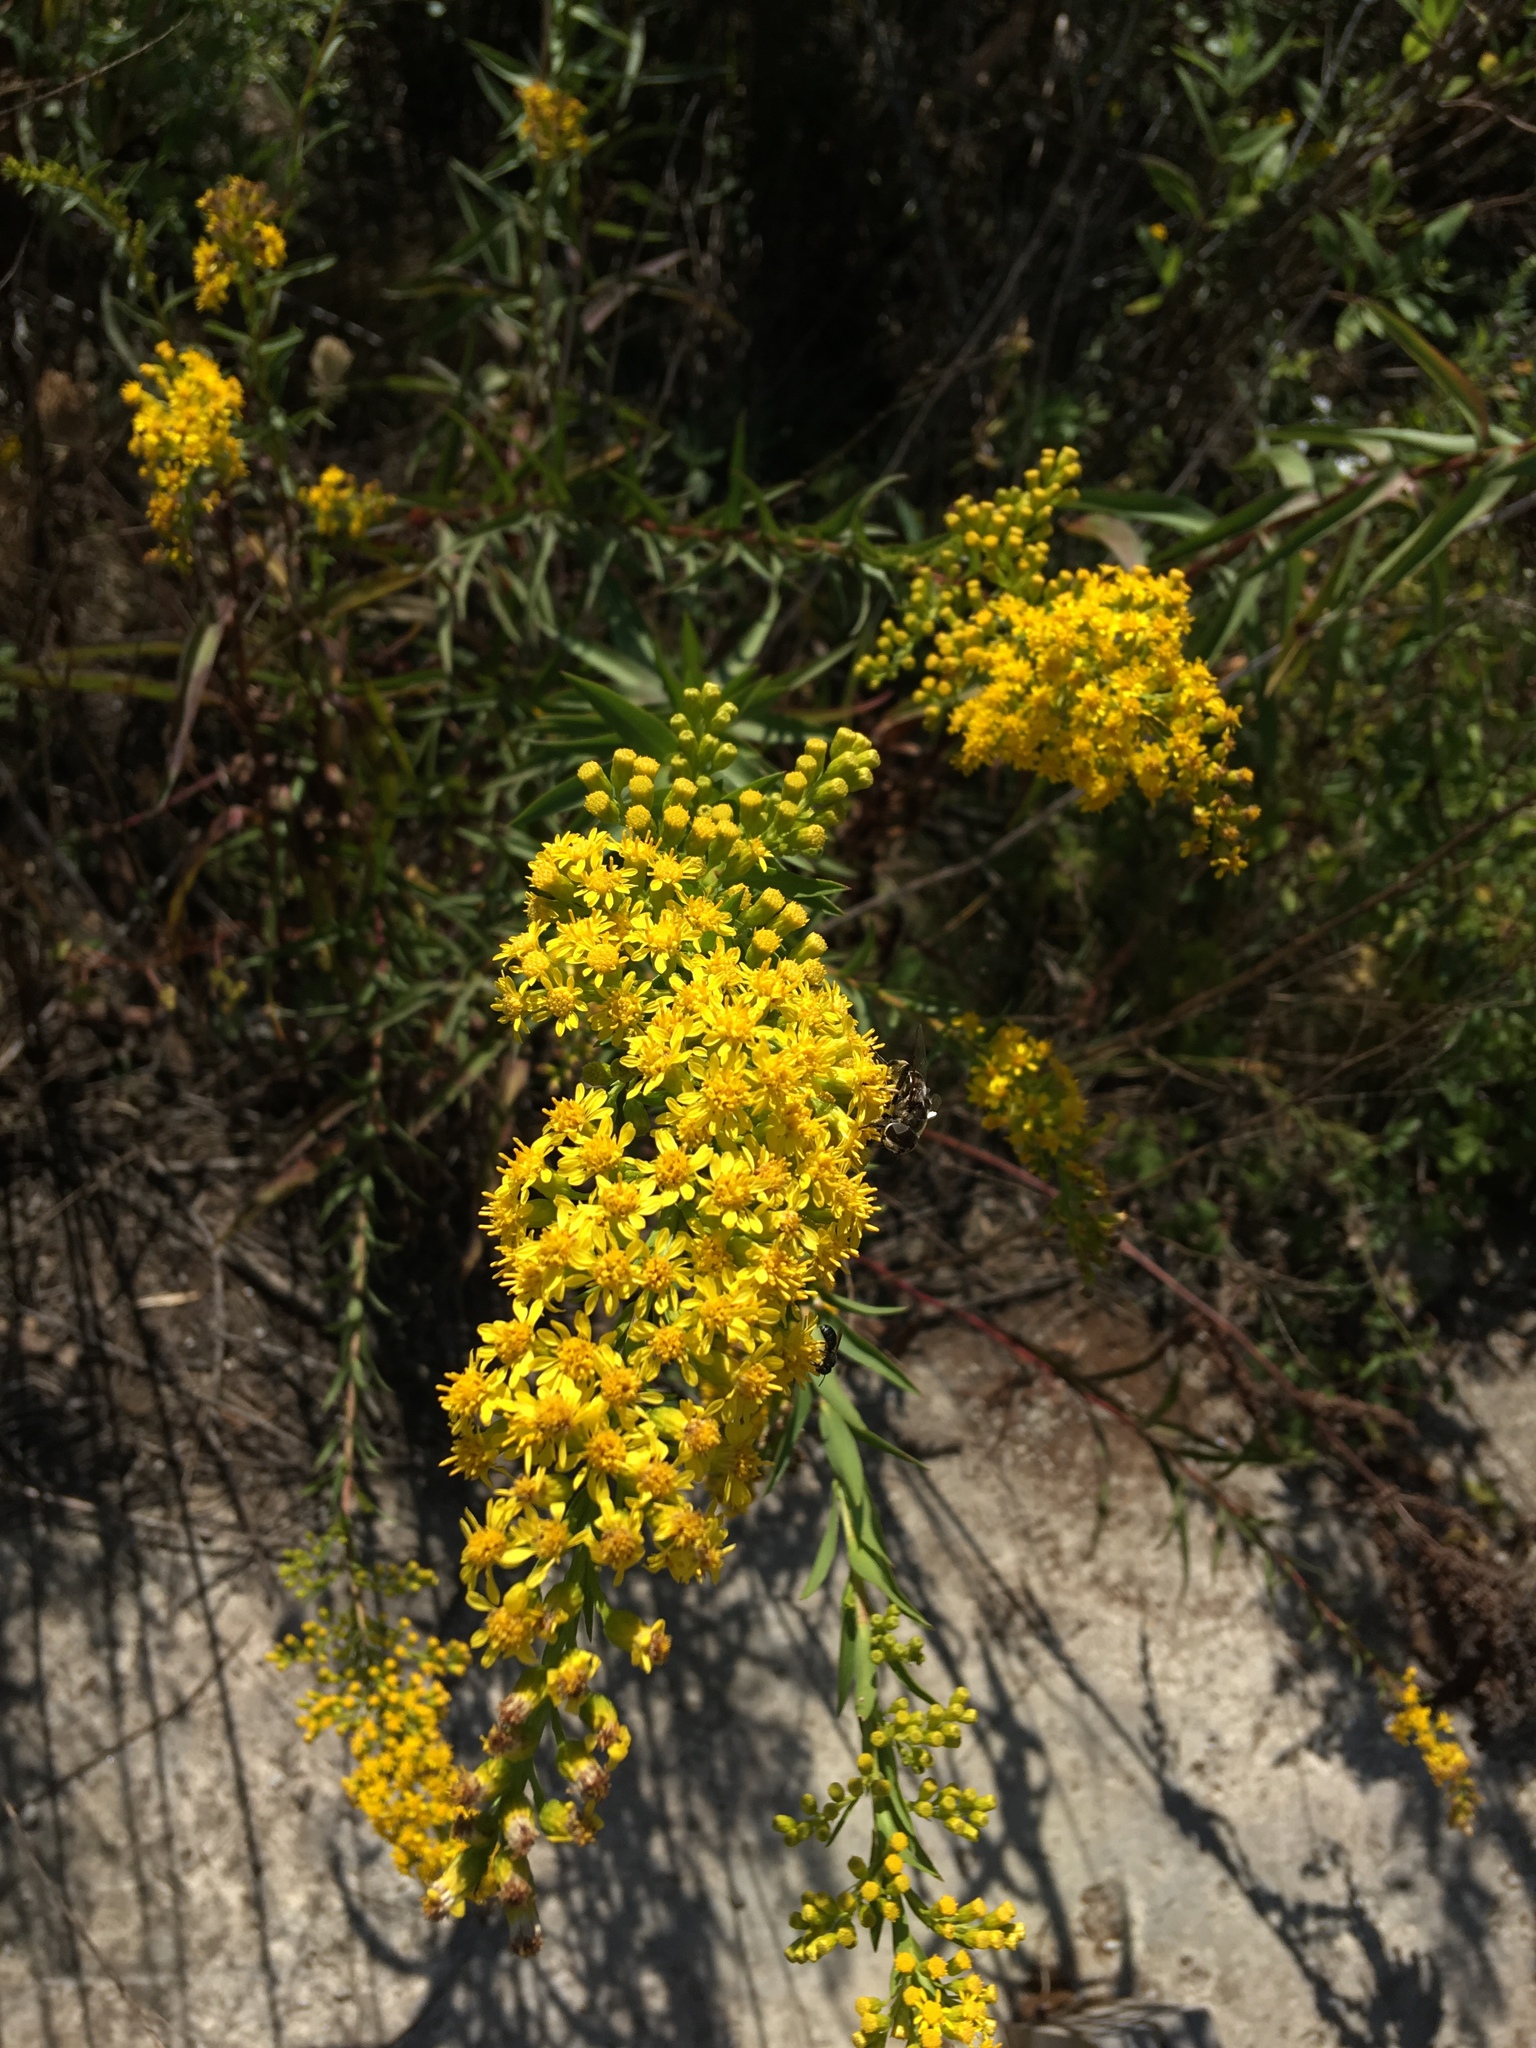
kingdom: Plantae
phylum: Tracheophyta
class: Magnoliopsida
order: Asterales
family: Asteraceae
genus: Solidago
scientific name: Solidago sempervirens
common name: Salt-marsh goldenrod
